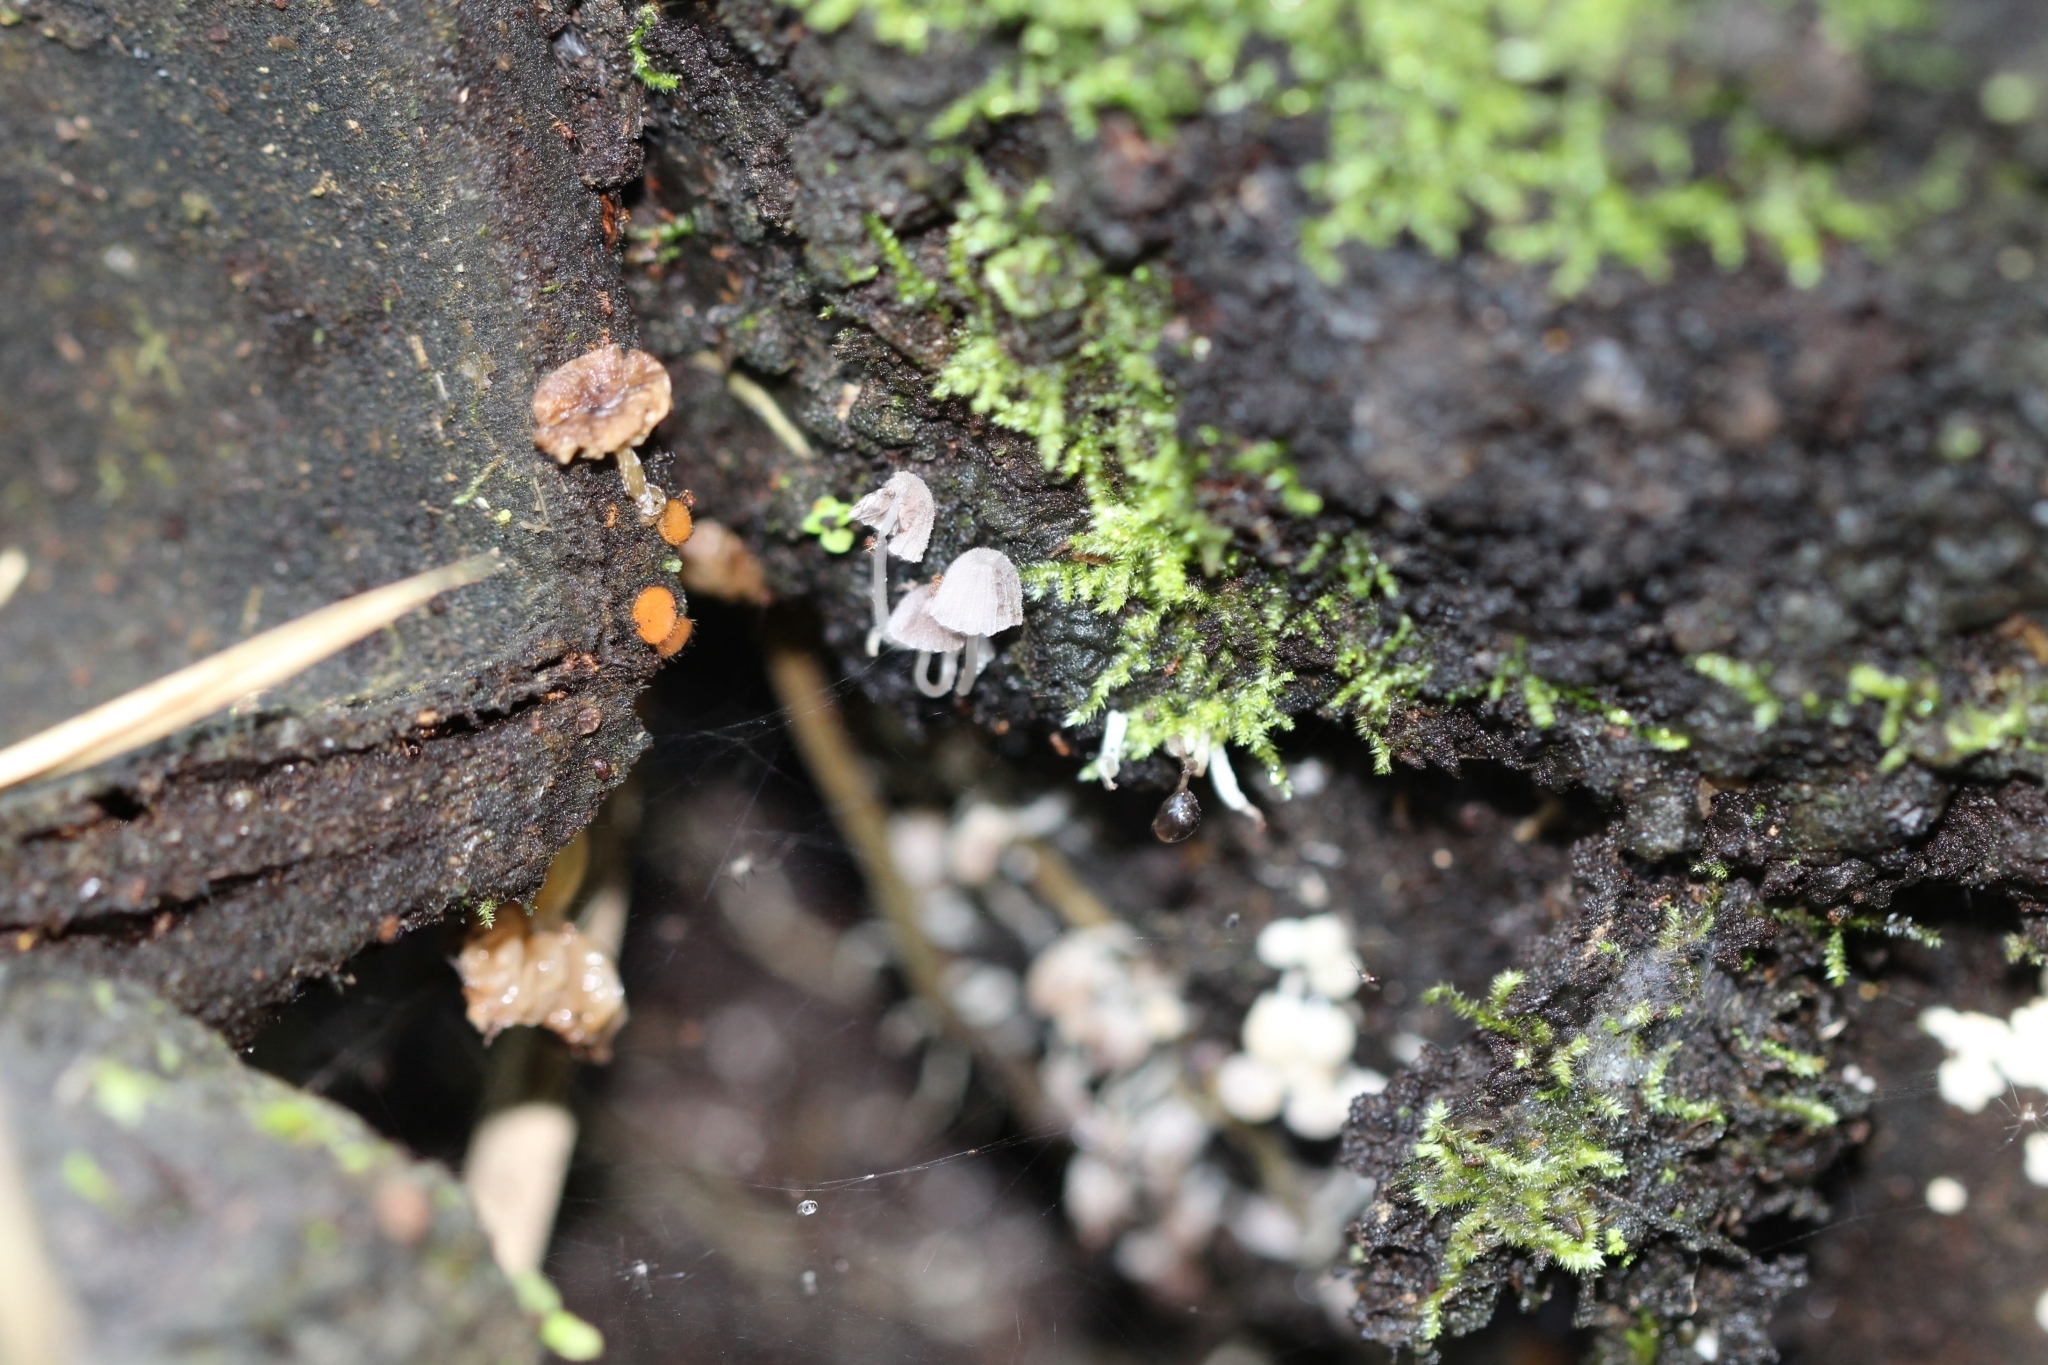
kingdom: Fungi
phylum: Basidiomycota
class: Agaricomycetes
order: Agaricales
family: Psathyrellaceae
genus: Coprinellus
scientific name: Coprinellus disseminatus
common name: Fairies' bonnets
